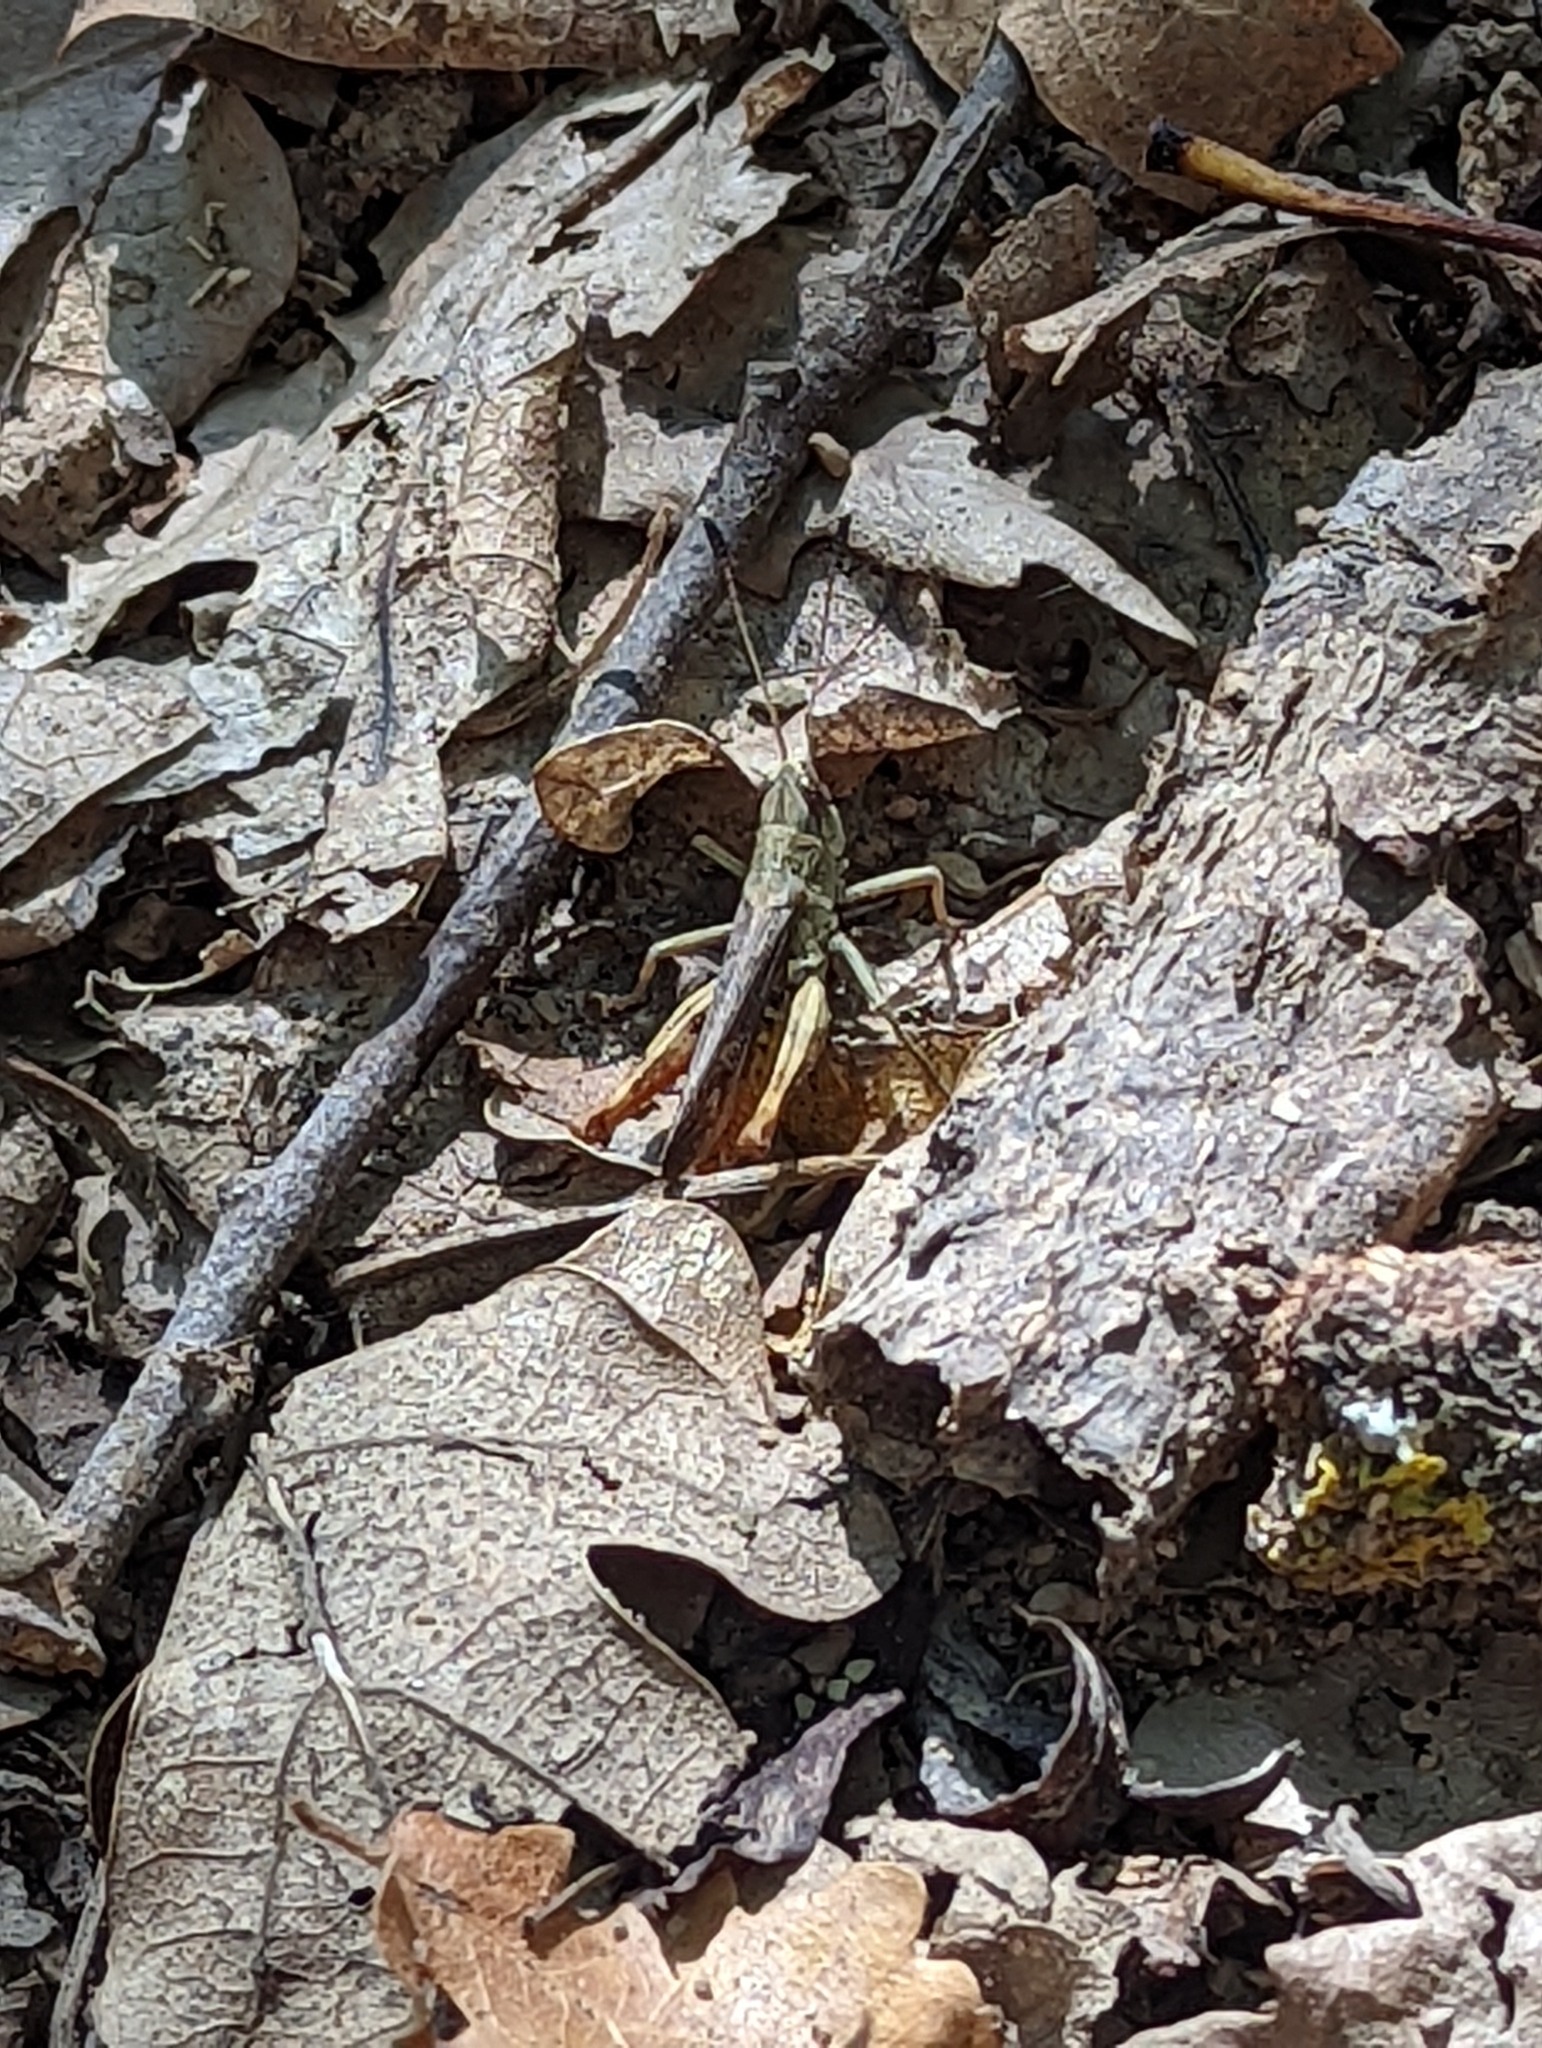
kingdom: Animalia
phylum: Arthropoda
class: Insecta
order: Orthoptera
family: Acrididae
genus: Gomphocerippus
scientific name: Gomphocerippus rufus
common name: Rufous grasshopper
